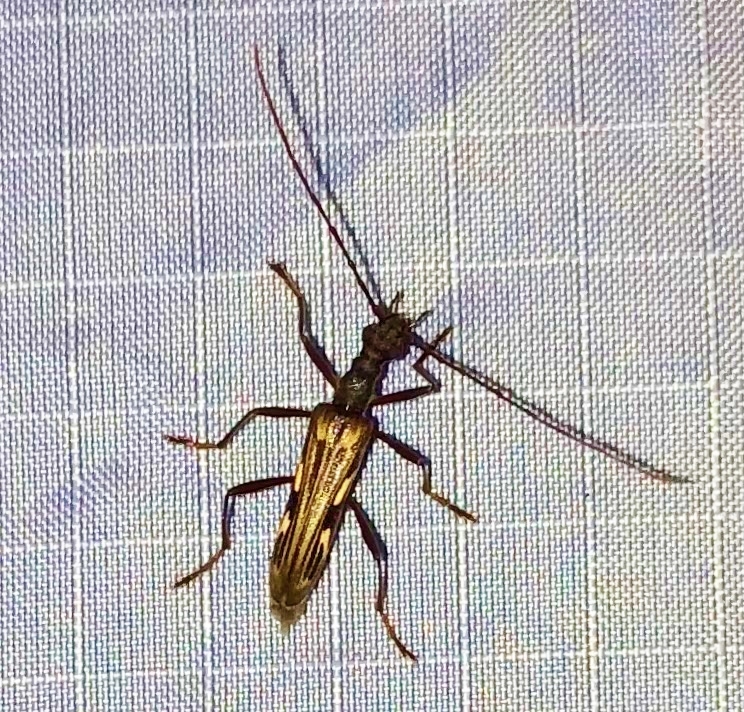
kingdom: Animalia
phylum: Arthropoda
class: Insecta
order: Coleoptera
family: Cerambycidae
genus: Leptorhabdium
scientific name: Leptorhabdium pictum
